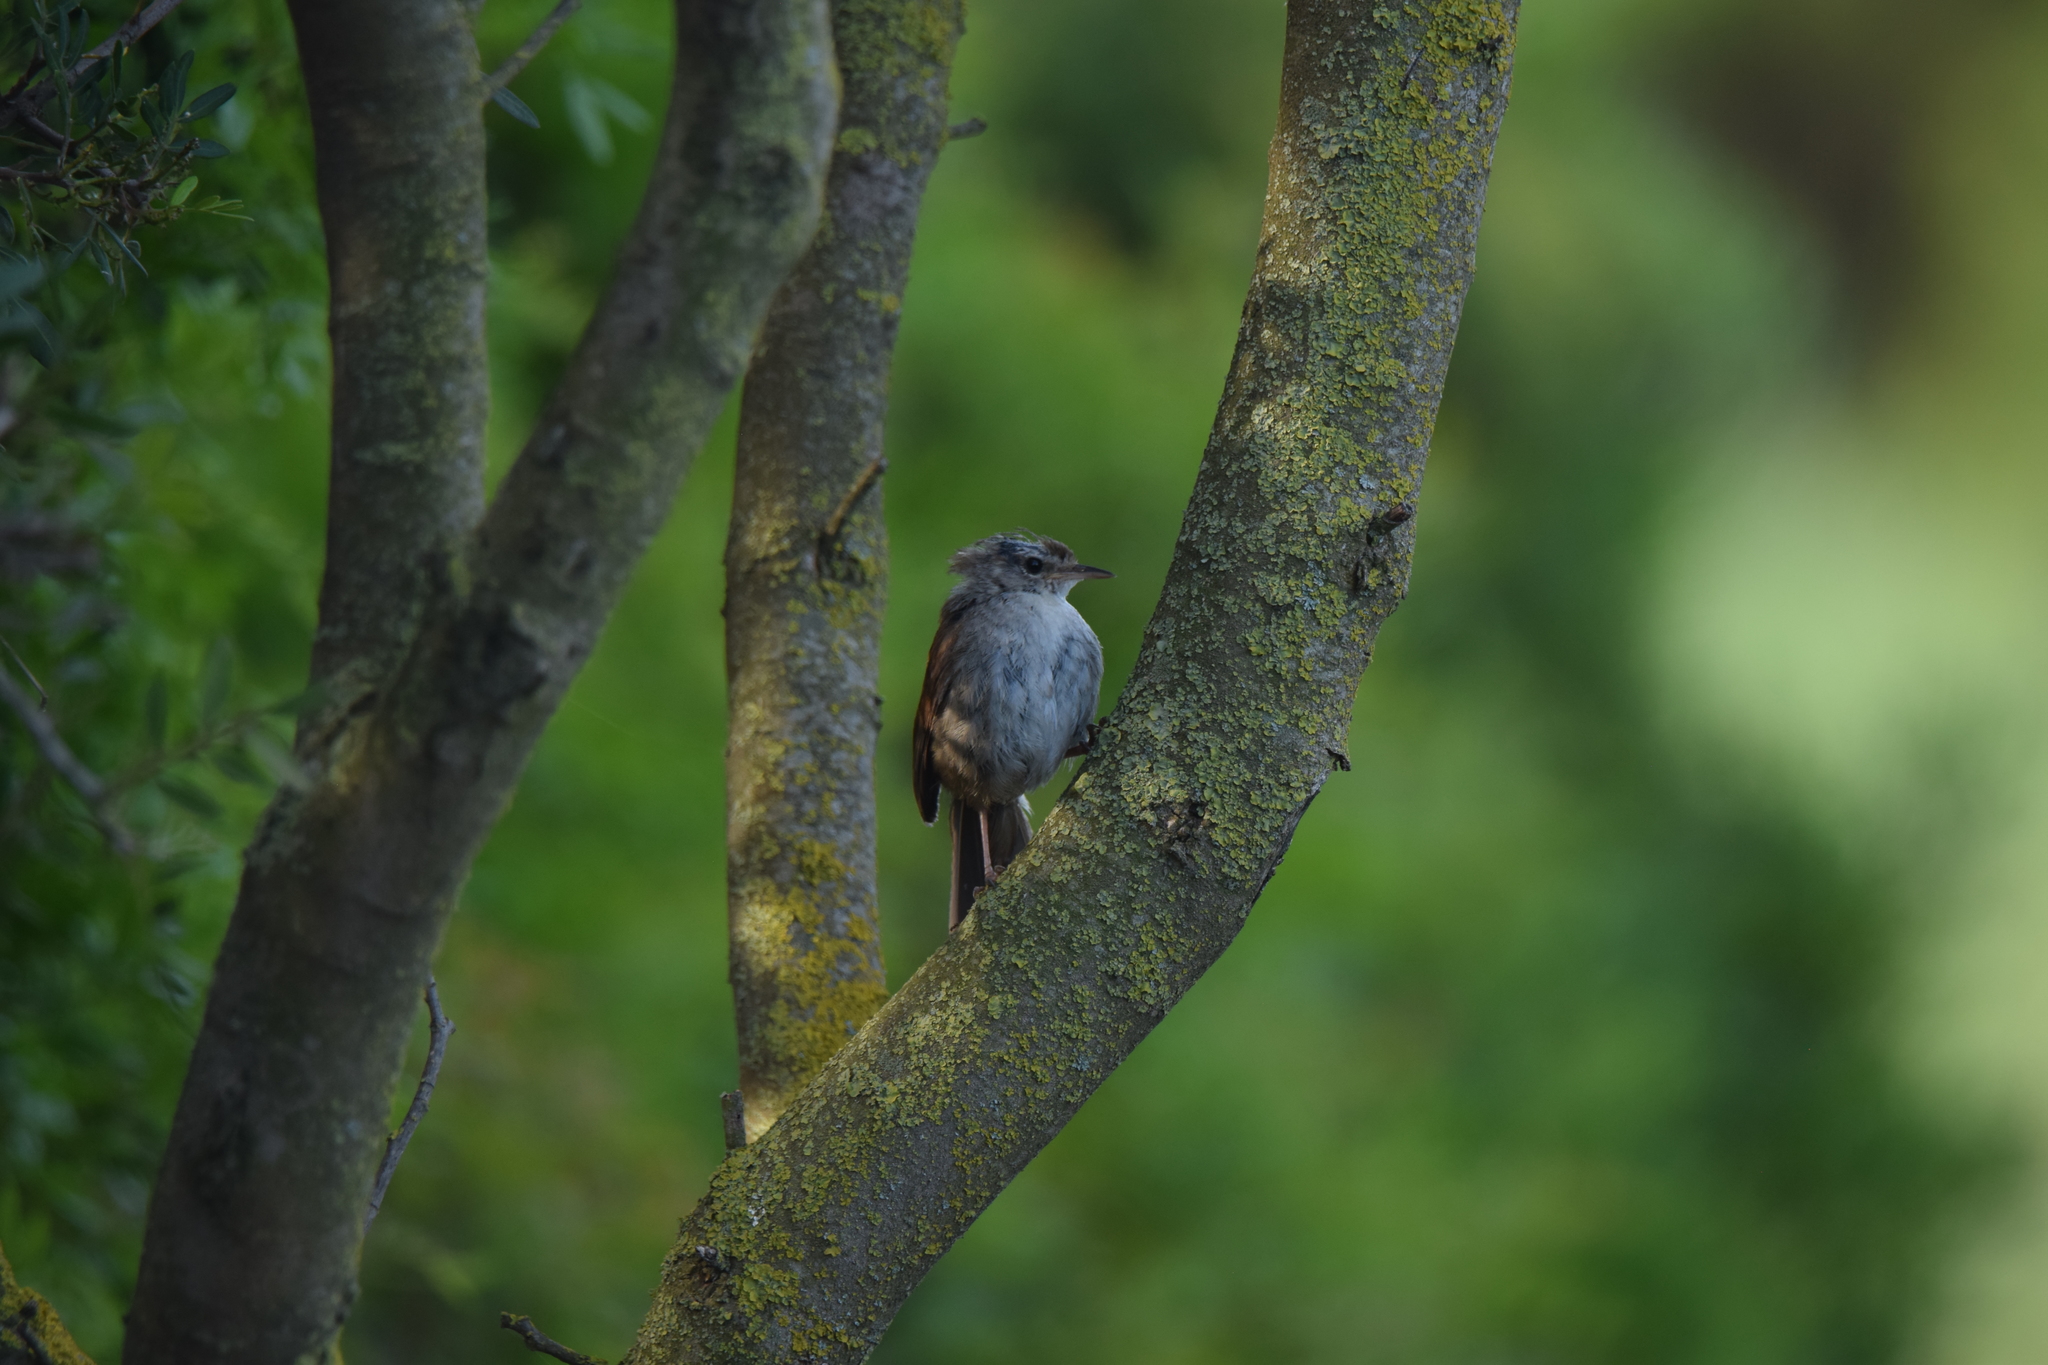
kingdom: Animalia
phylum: Chordata
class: Aves
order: Passeriformes
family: Cettiidae
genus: Cettia
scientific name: Cettia cetti
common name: Cetti's warbler
